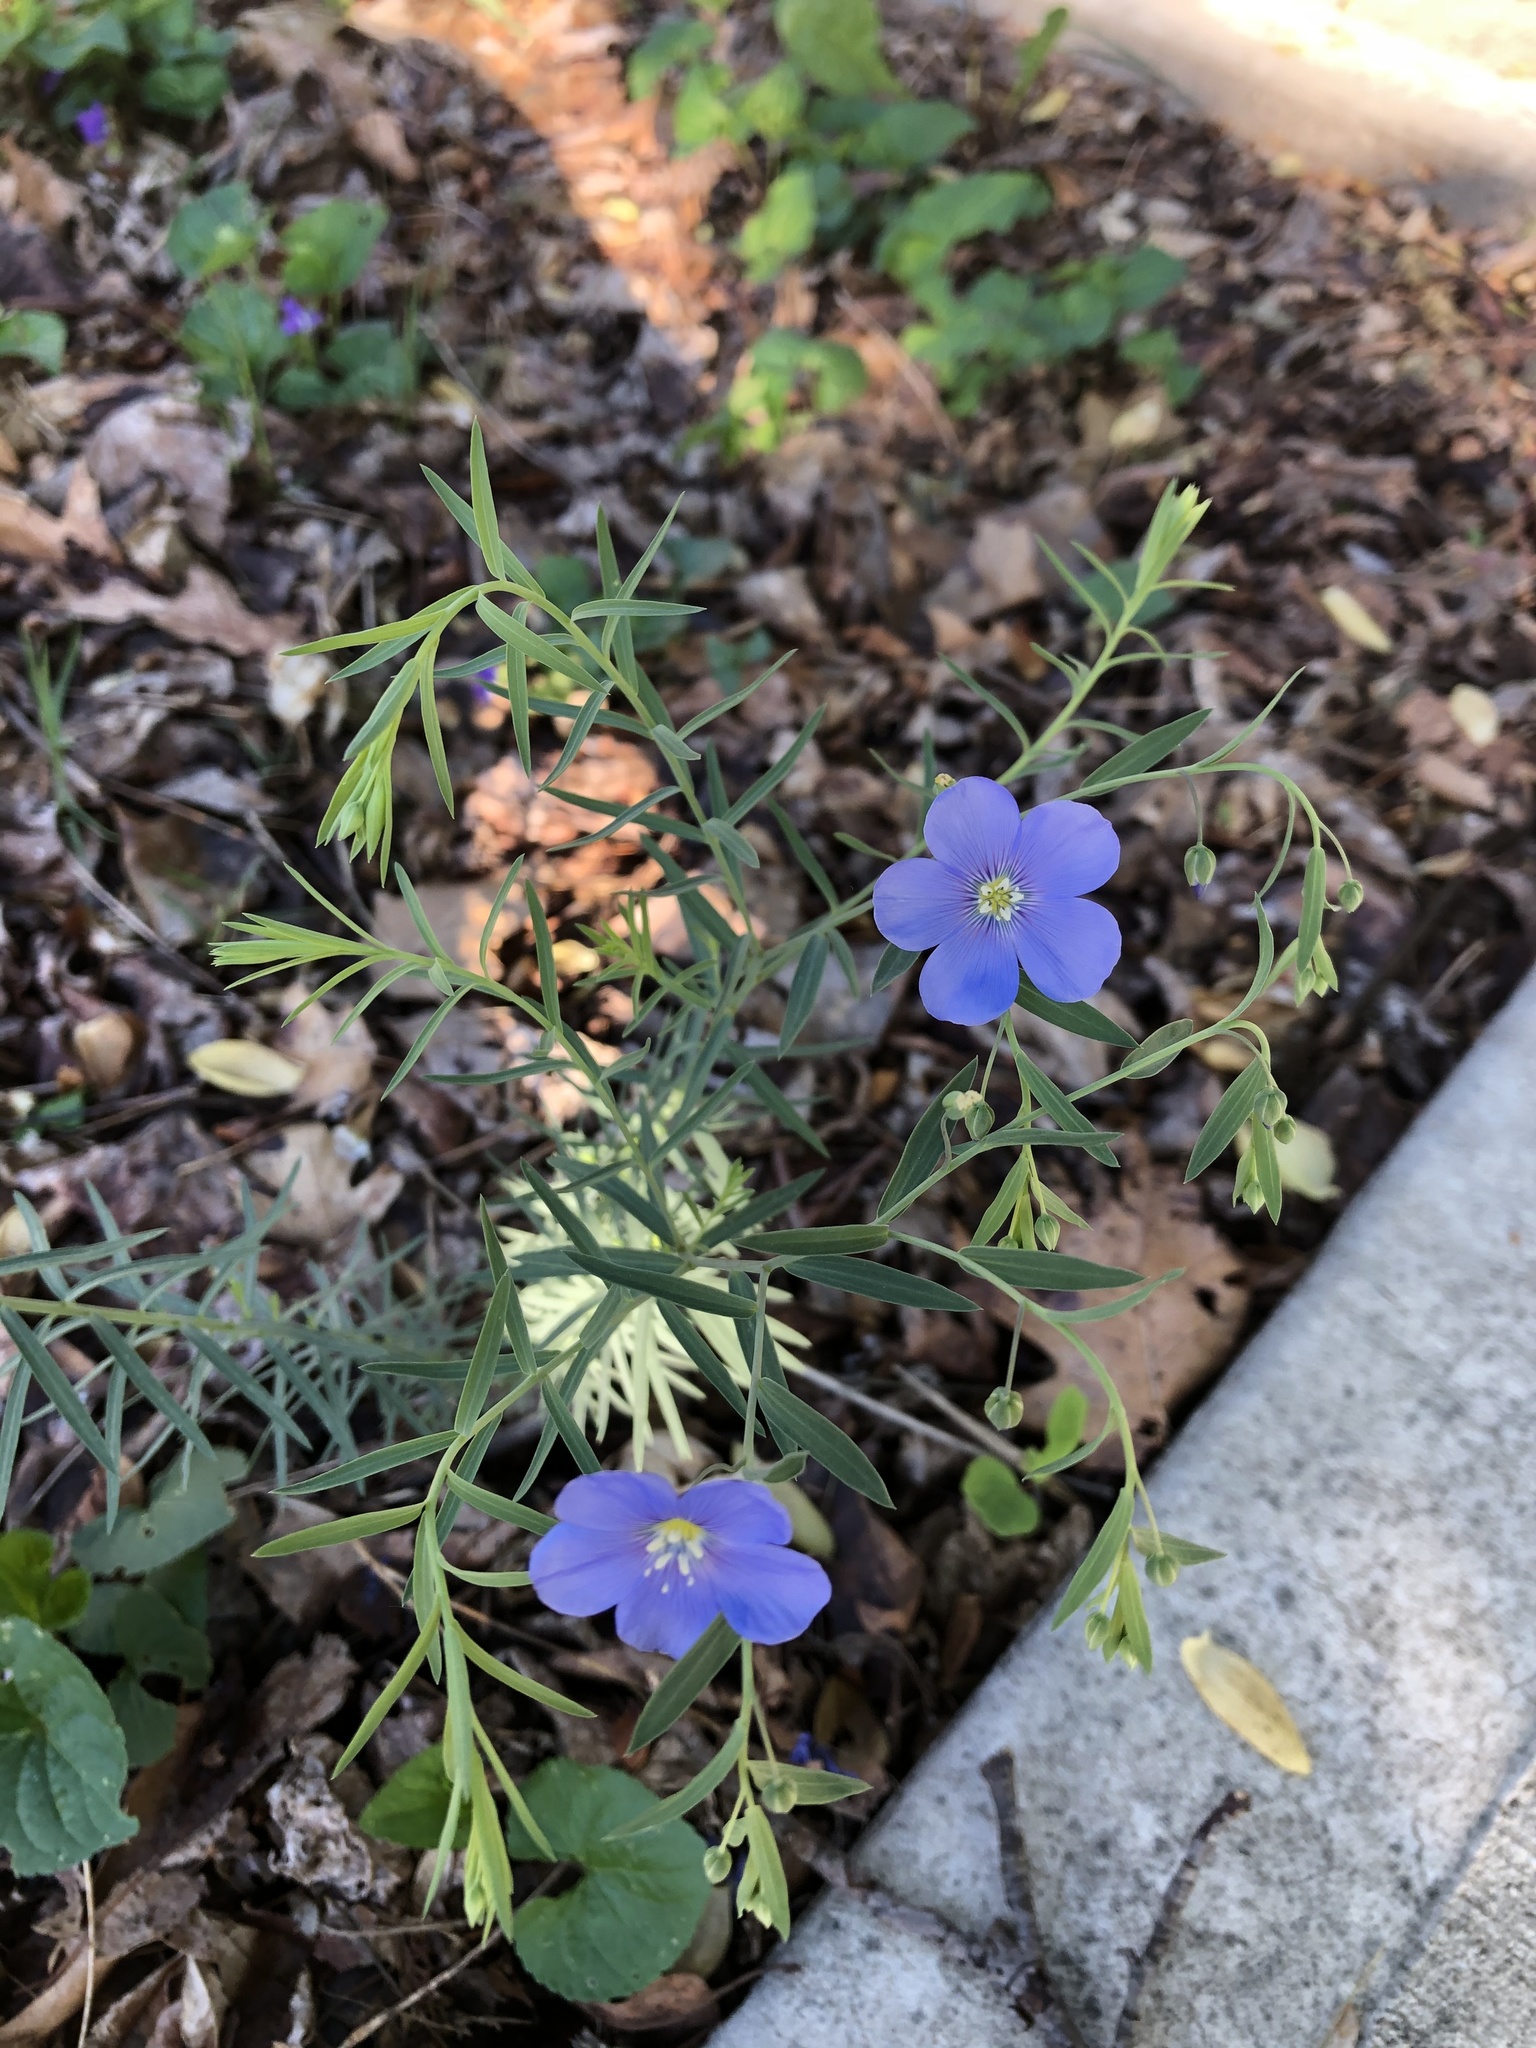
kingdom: Plantae
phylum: Tracheophyta
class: Magnoliopsida
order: Malpighiales
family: Linaceae
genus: Linum
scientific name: Linum lewisii
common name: Prairie flax
